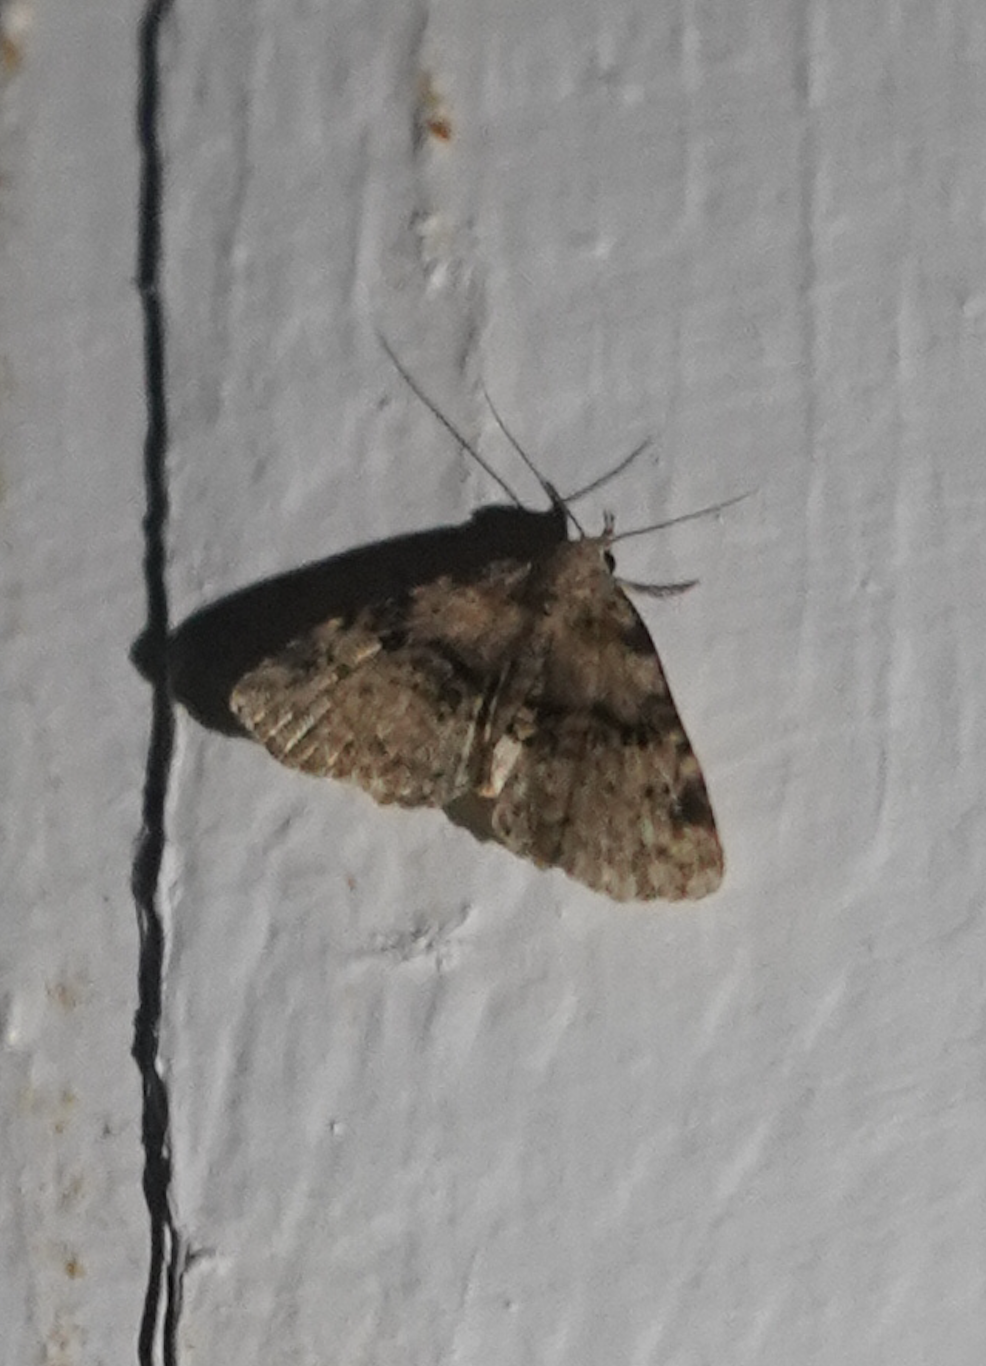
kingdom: Animalia
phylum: Arthropoda
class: Insecta
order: Lepidoptera
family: Erebidae
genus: Metalectra
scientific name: Metalectra quadrisignata
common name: Four-spotted fungus moth
